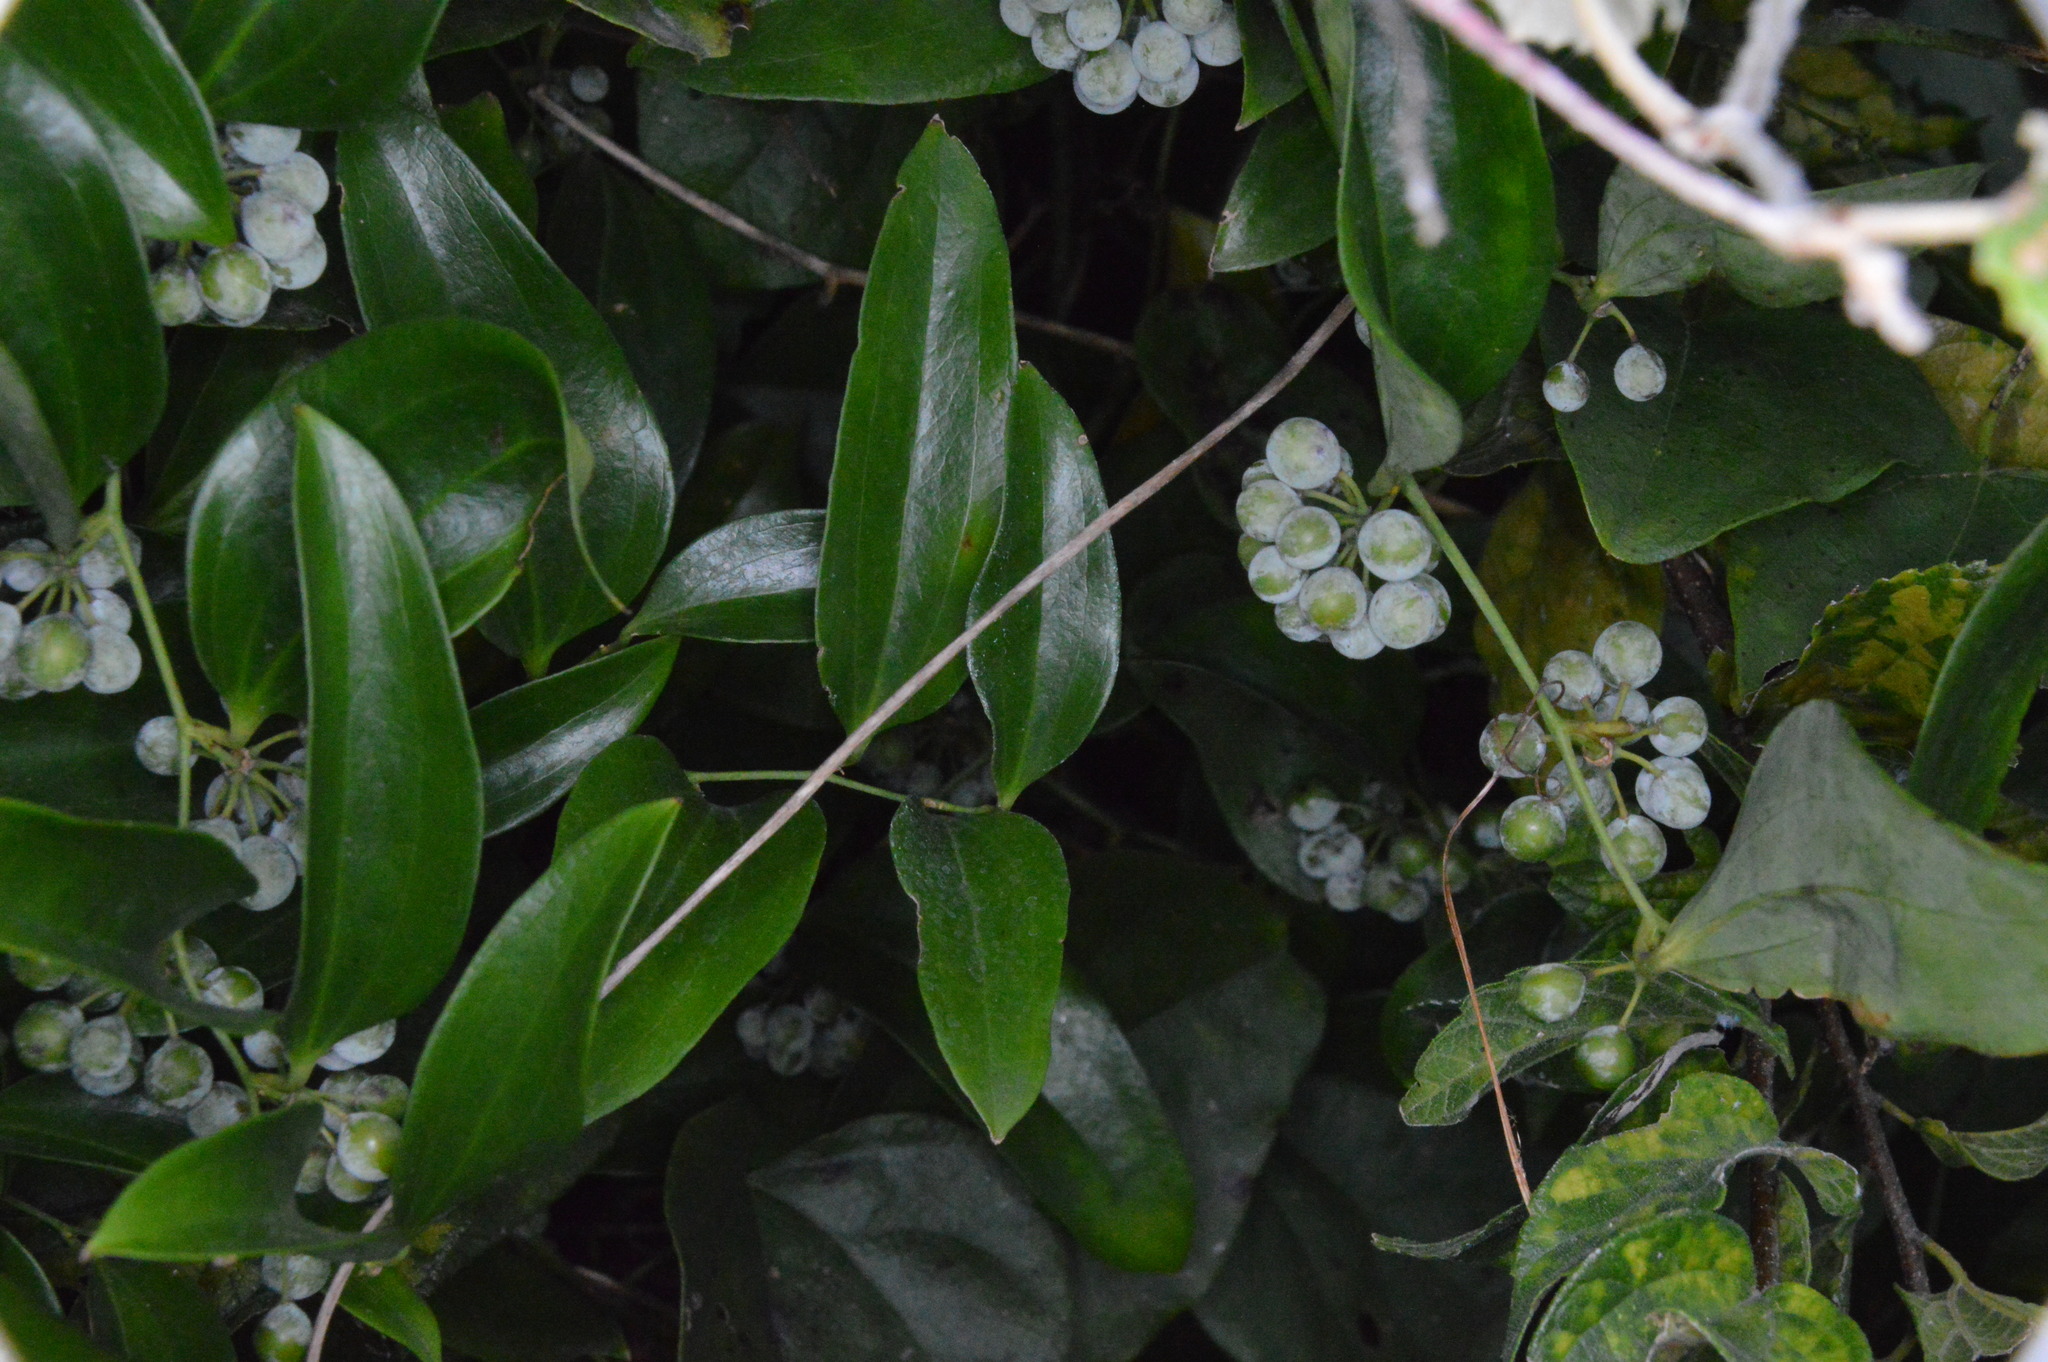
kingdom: Plantae
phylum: Tracheophyta
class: Liliopsida
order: Liliales
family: Smilacaceae
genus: Smilax
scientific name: Smilax maritima
